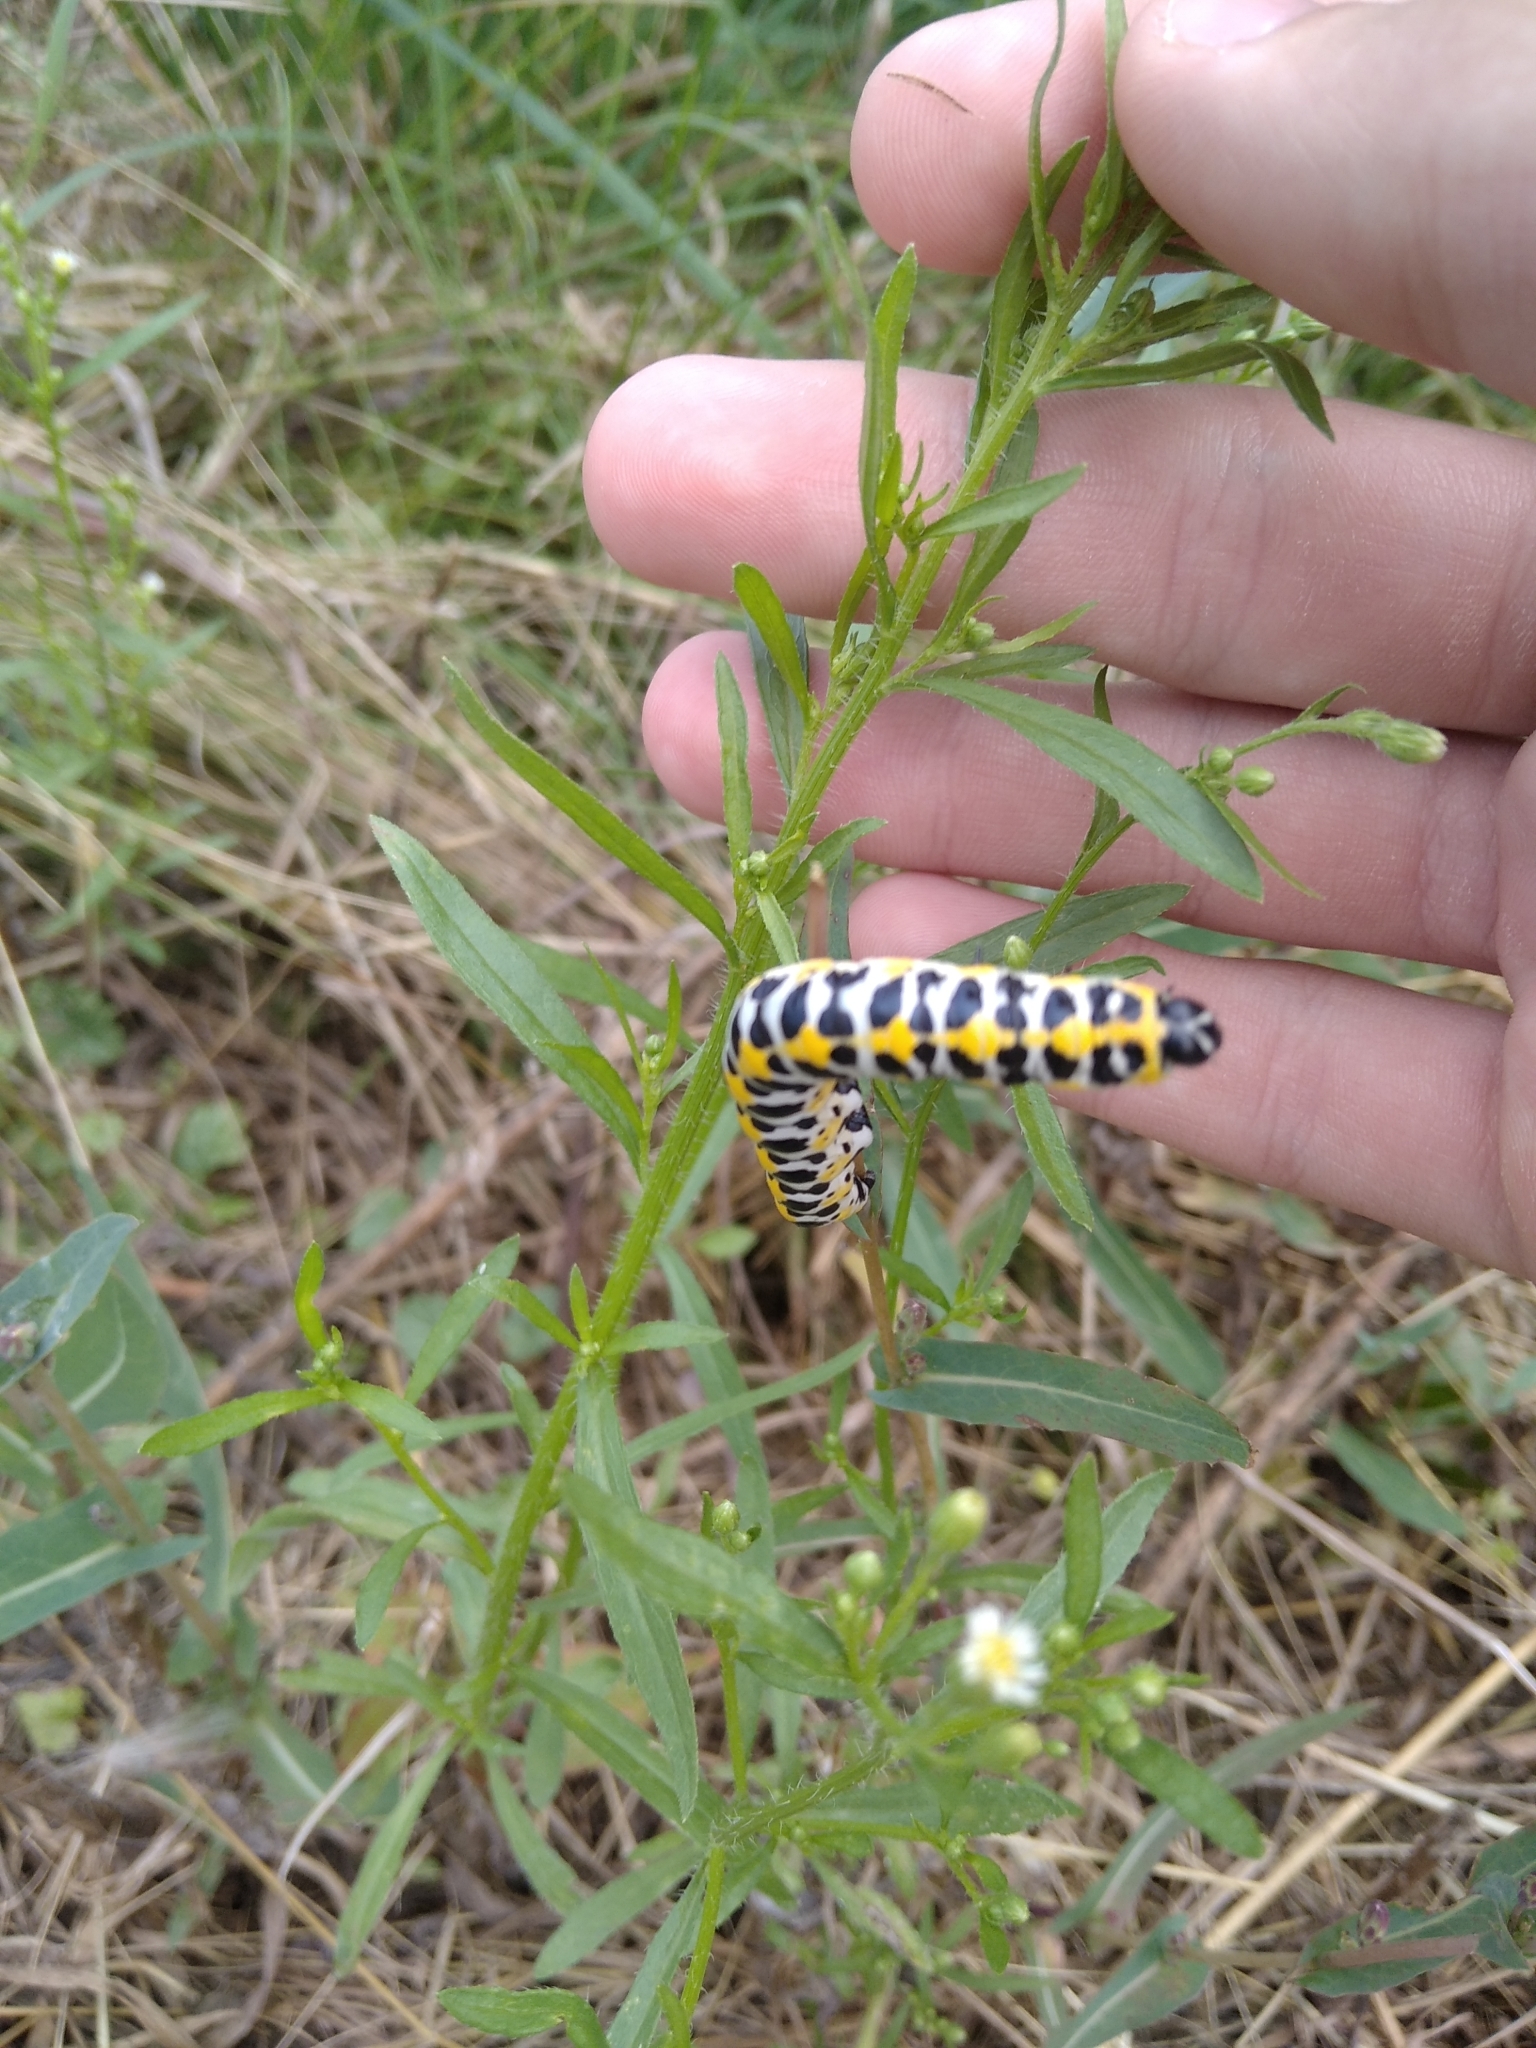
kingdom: Animalia
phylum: Arthropoda
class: Insecta
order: Lepidoptera
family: Noctuidae
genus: Cucullia
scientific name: Cucullia pustulata
